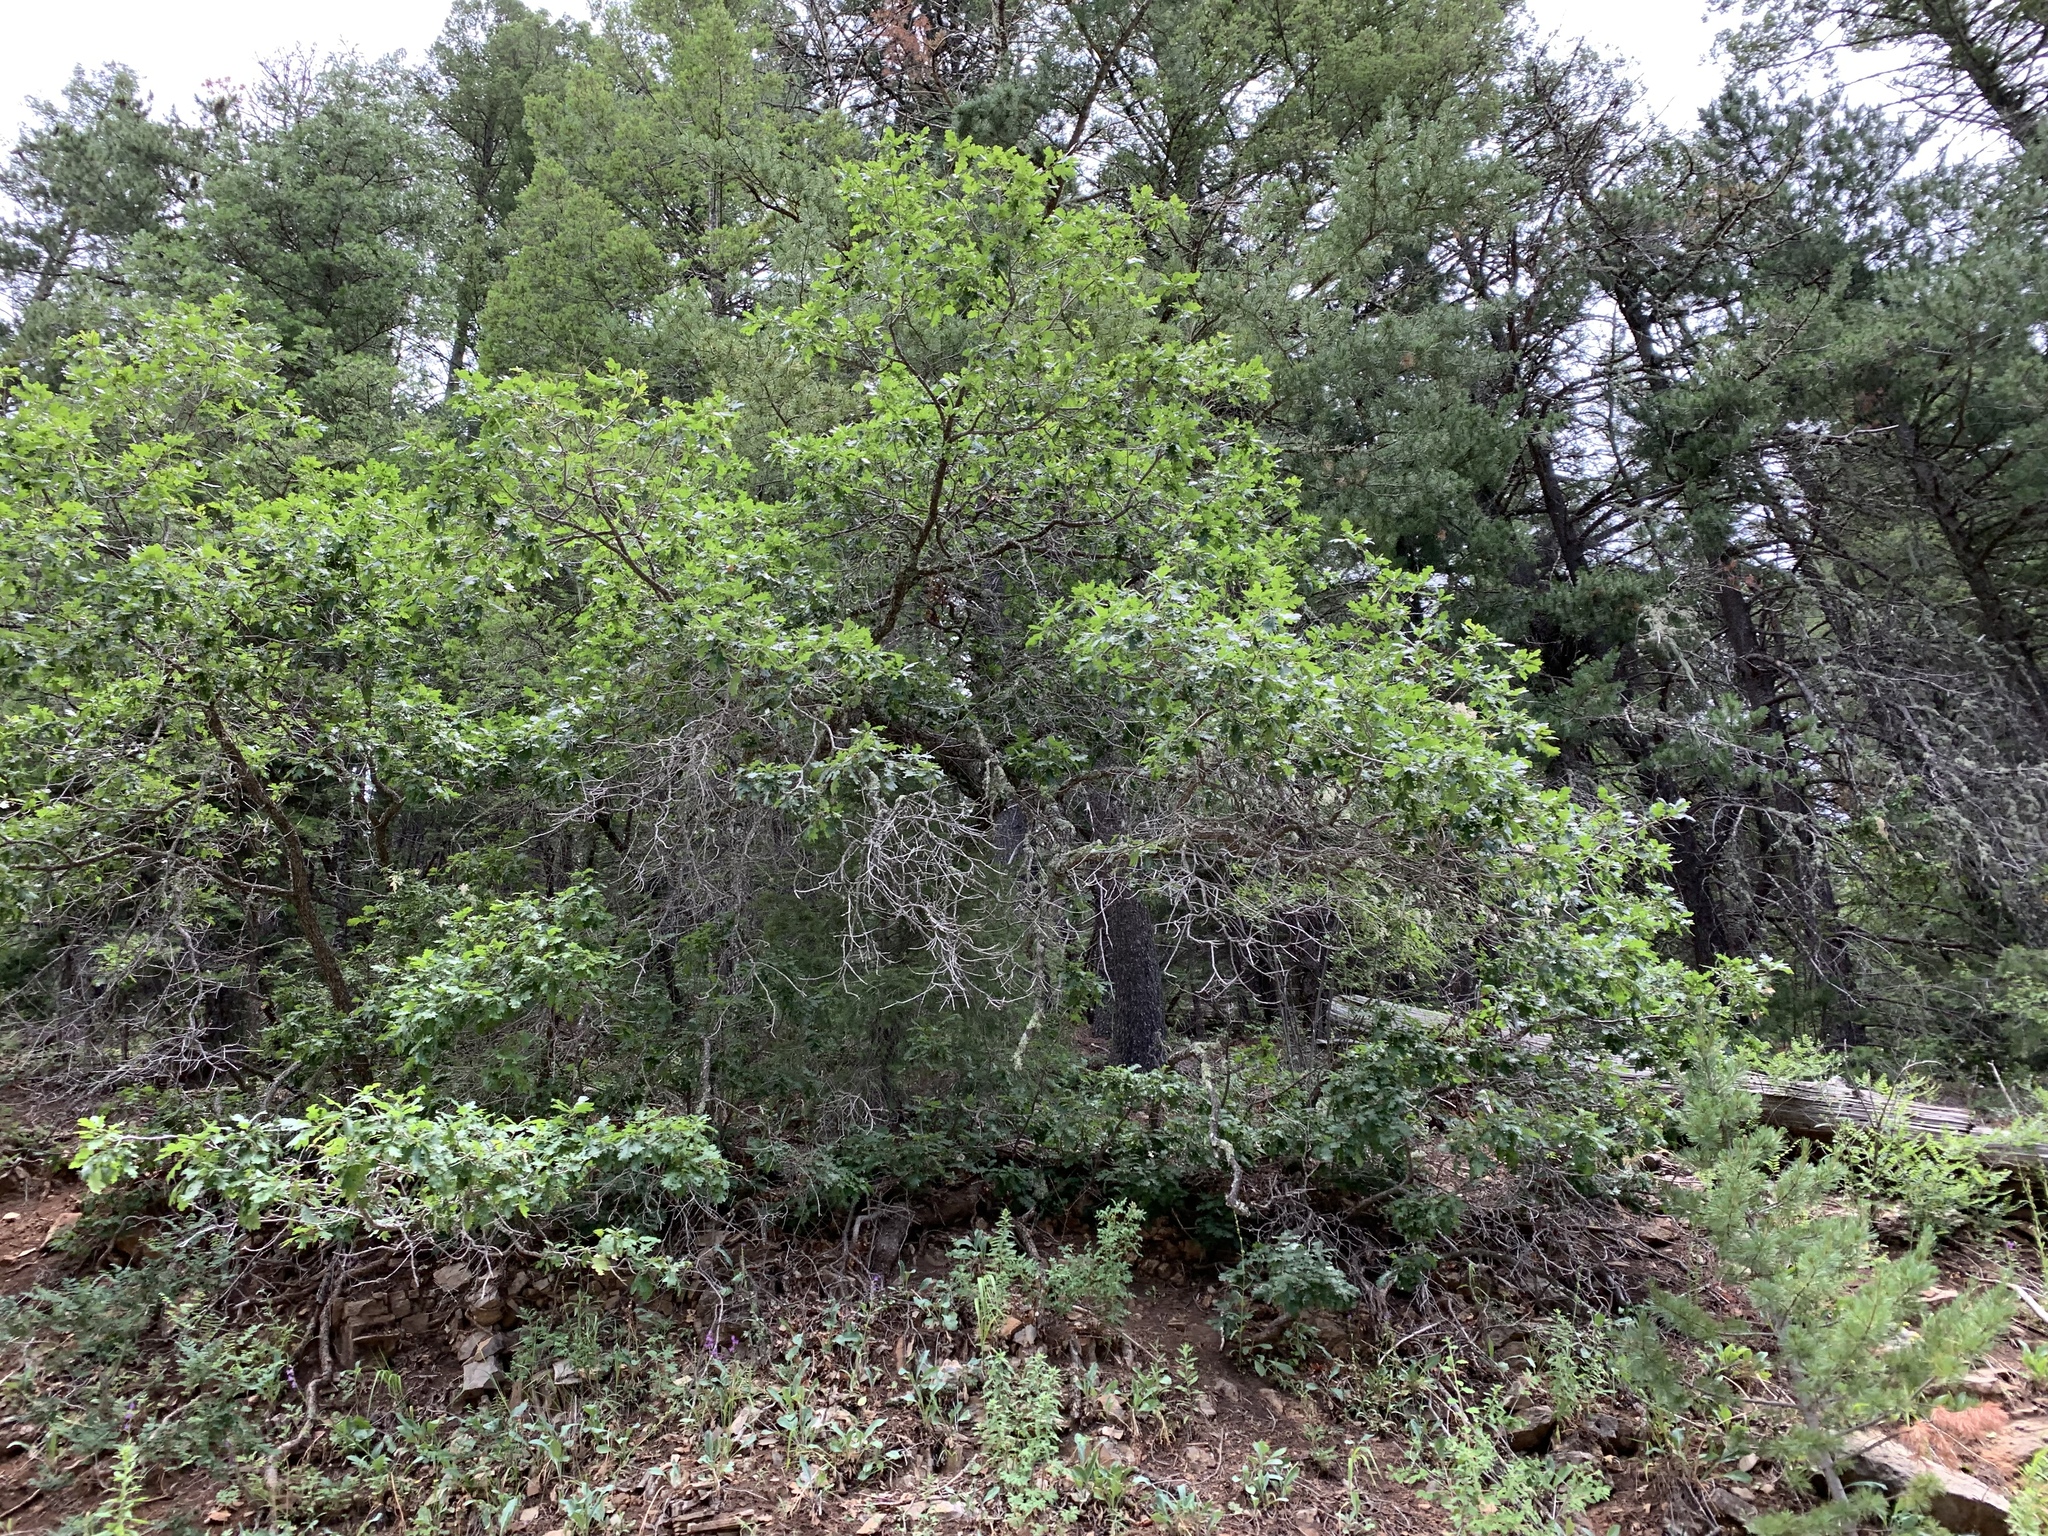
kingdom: Plantae
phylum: Tracheophyta
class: Magnoliopsida
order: Fagales
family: Fagaceae
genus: Quercus
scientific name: Quercus gambelii
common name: Gambel oak
